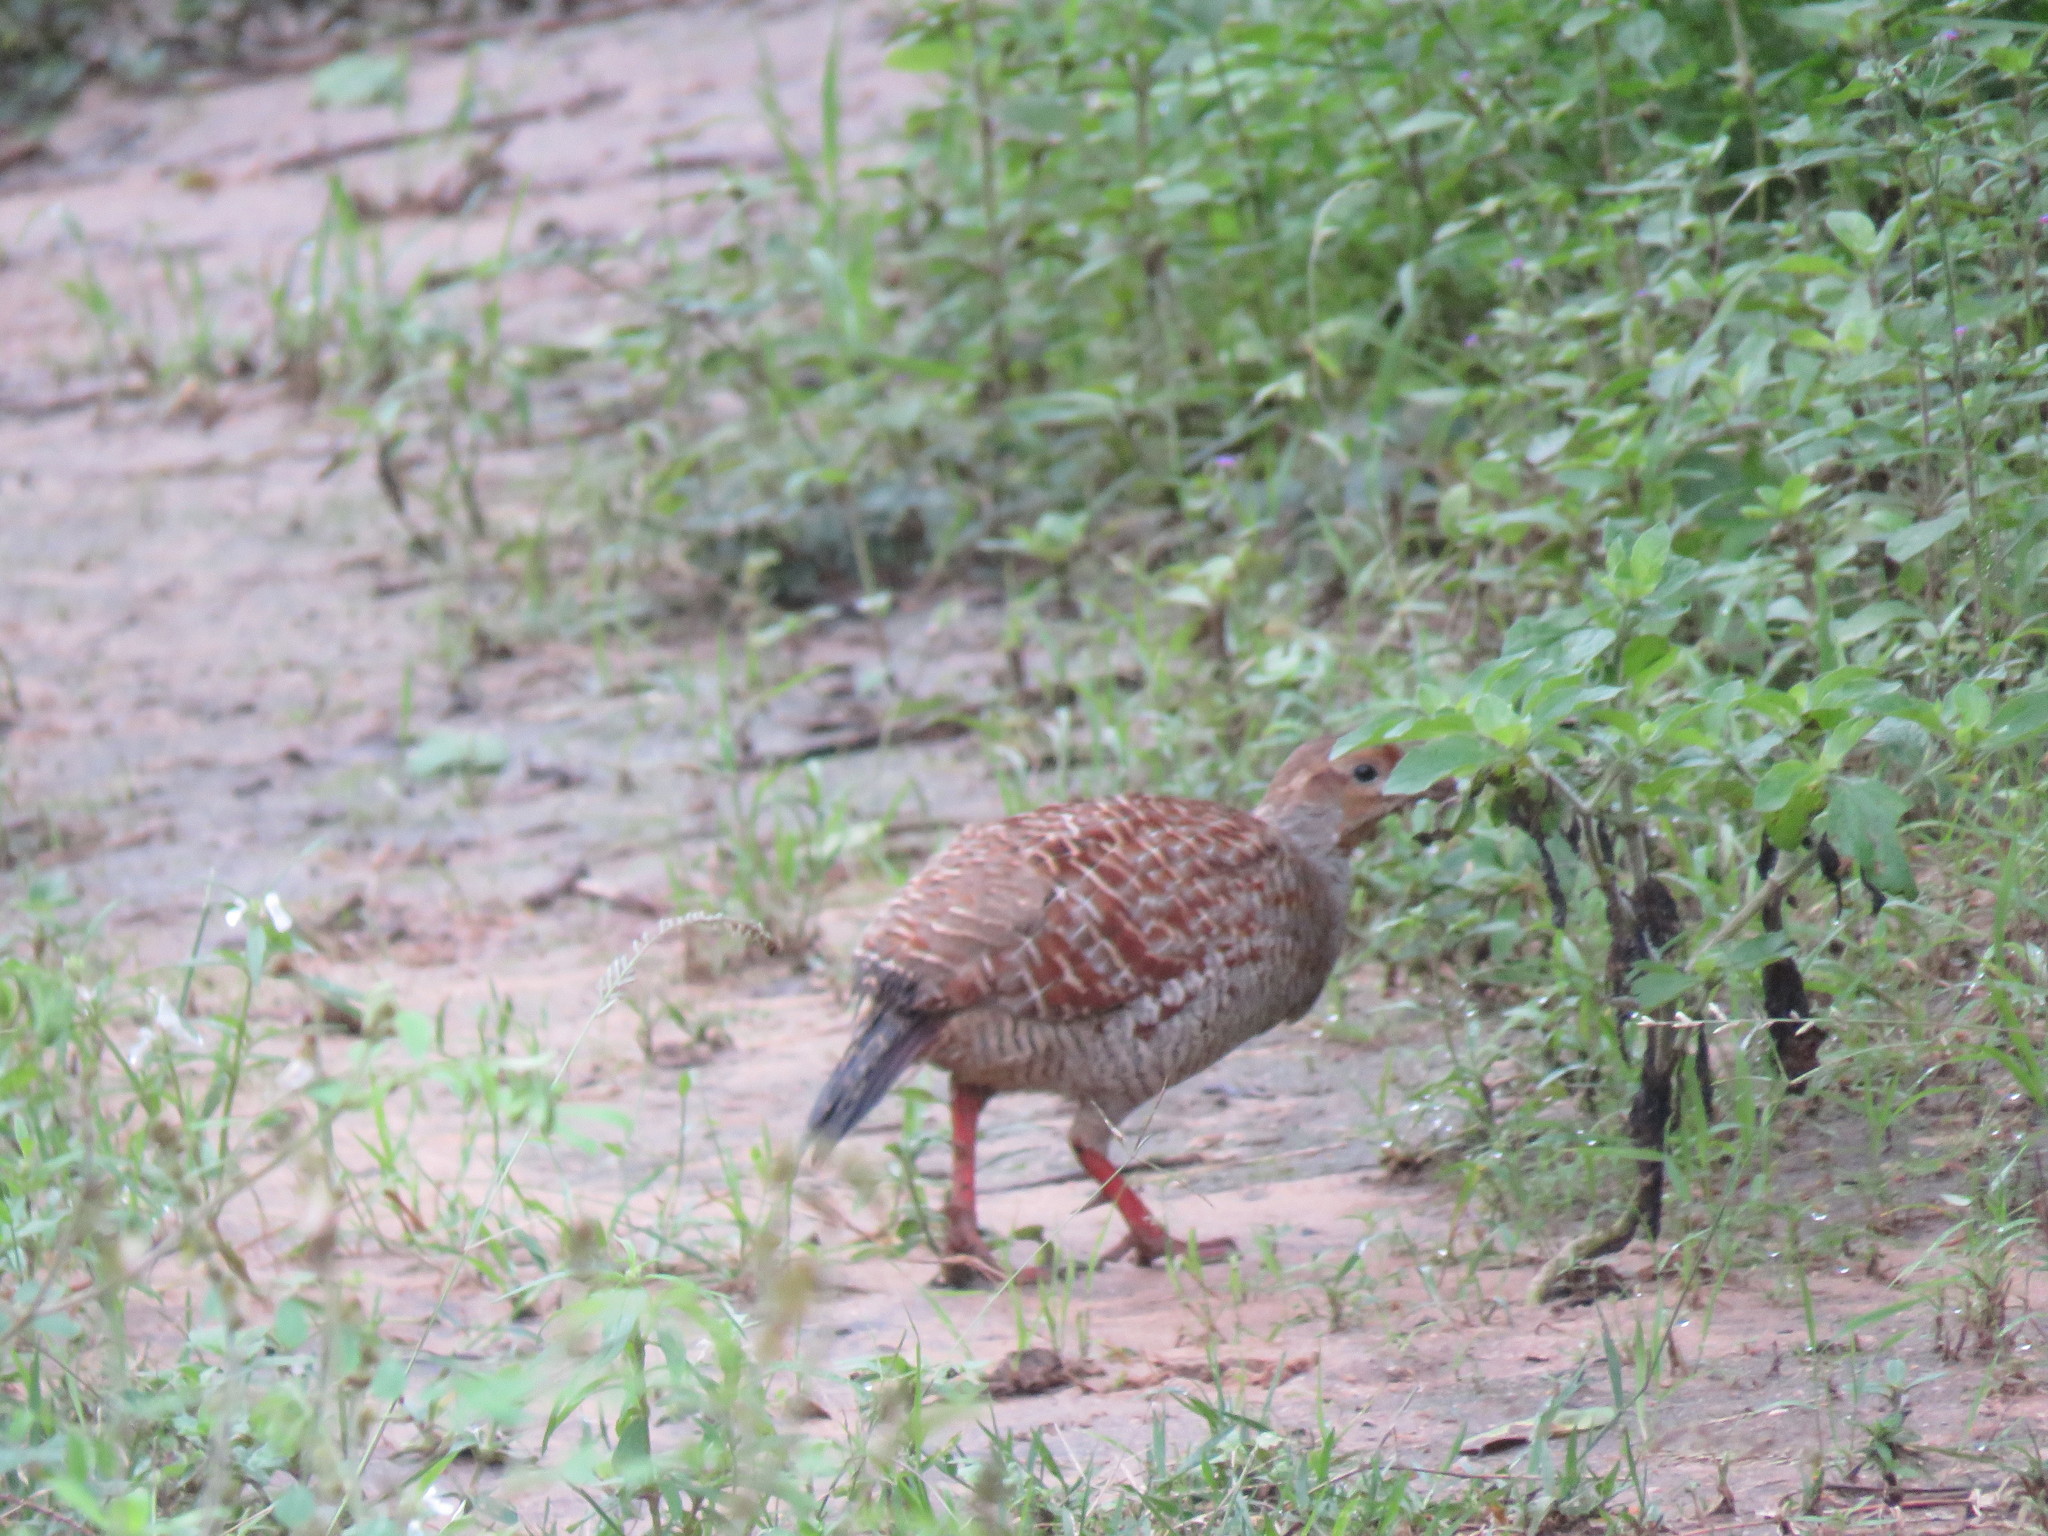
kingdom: Animalia
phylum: Chordata
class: Aves
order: Galliformes
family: Phasianidae
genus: Ortygornis
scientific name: Ortygornis pondicerianus
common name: Grey francolin
